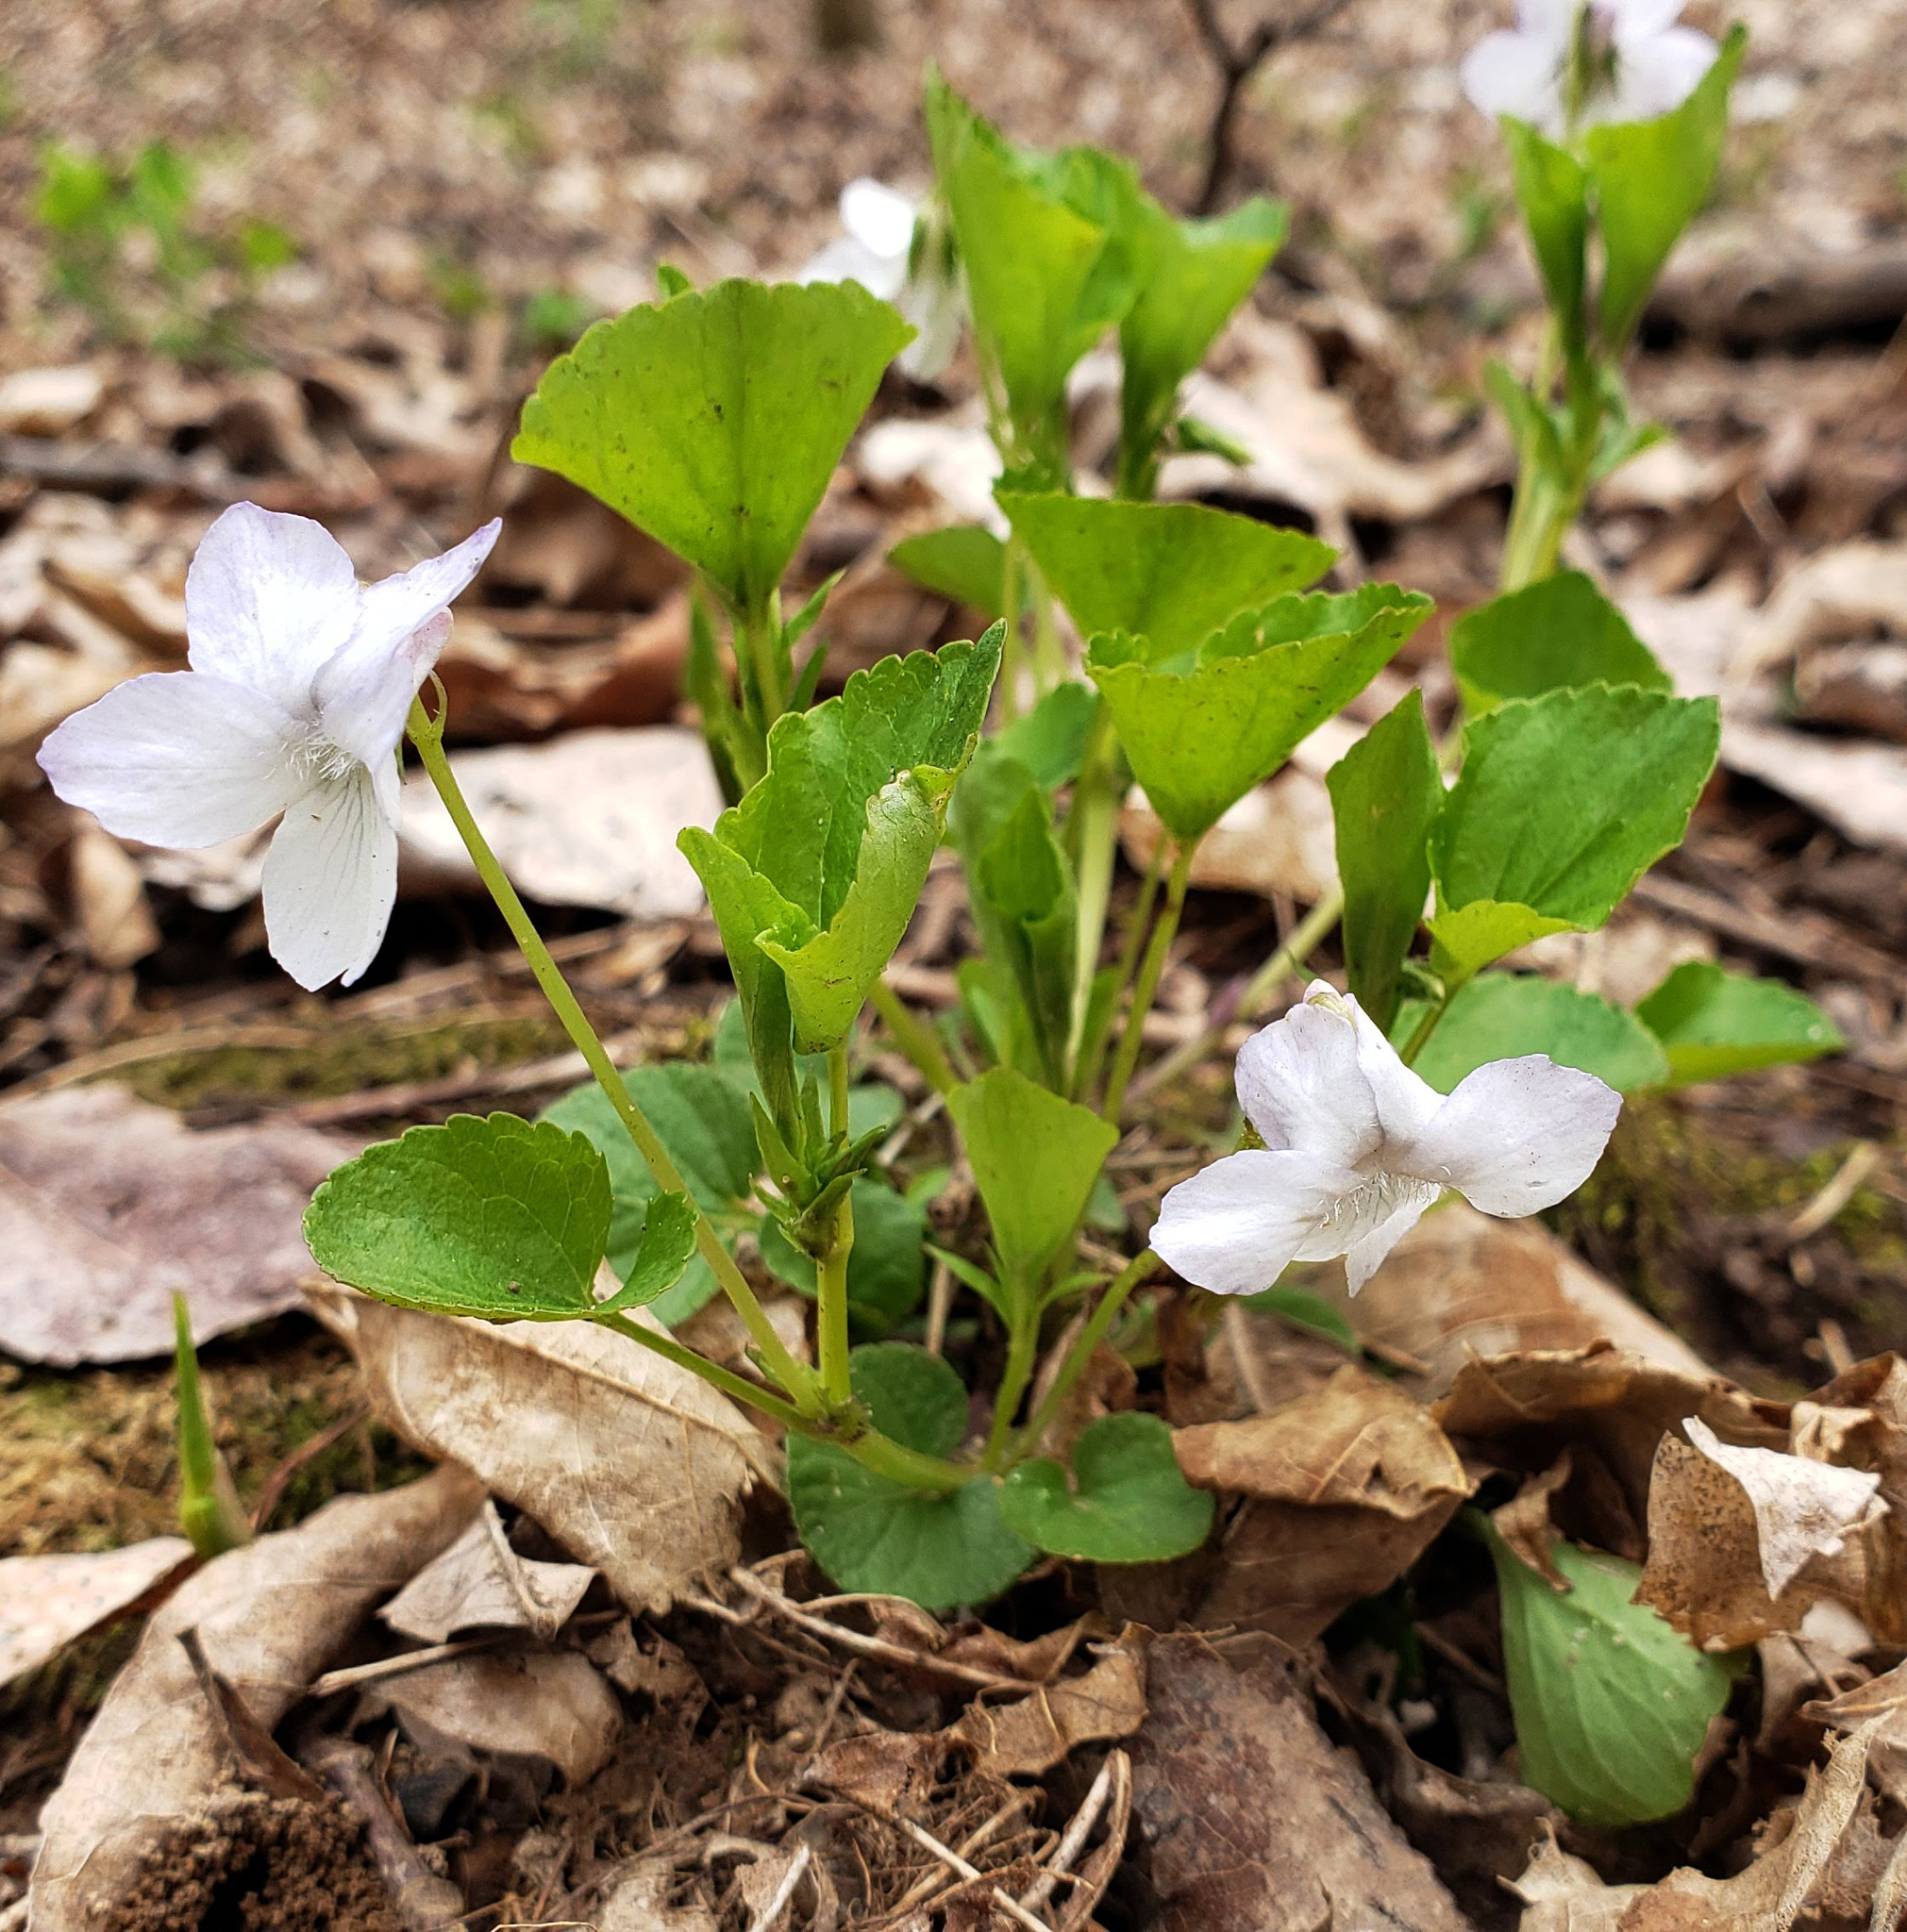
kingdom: Plantae
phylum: Tracheophyta
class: Magnoliopsida
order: Malpighiales
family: Violaceae
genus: Viola
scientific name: Viola labradorica
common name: Labrador violet
